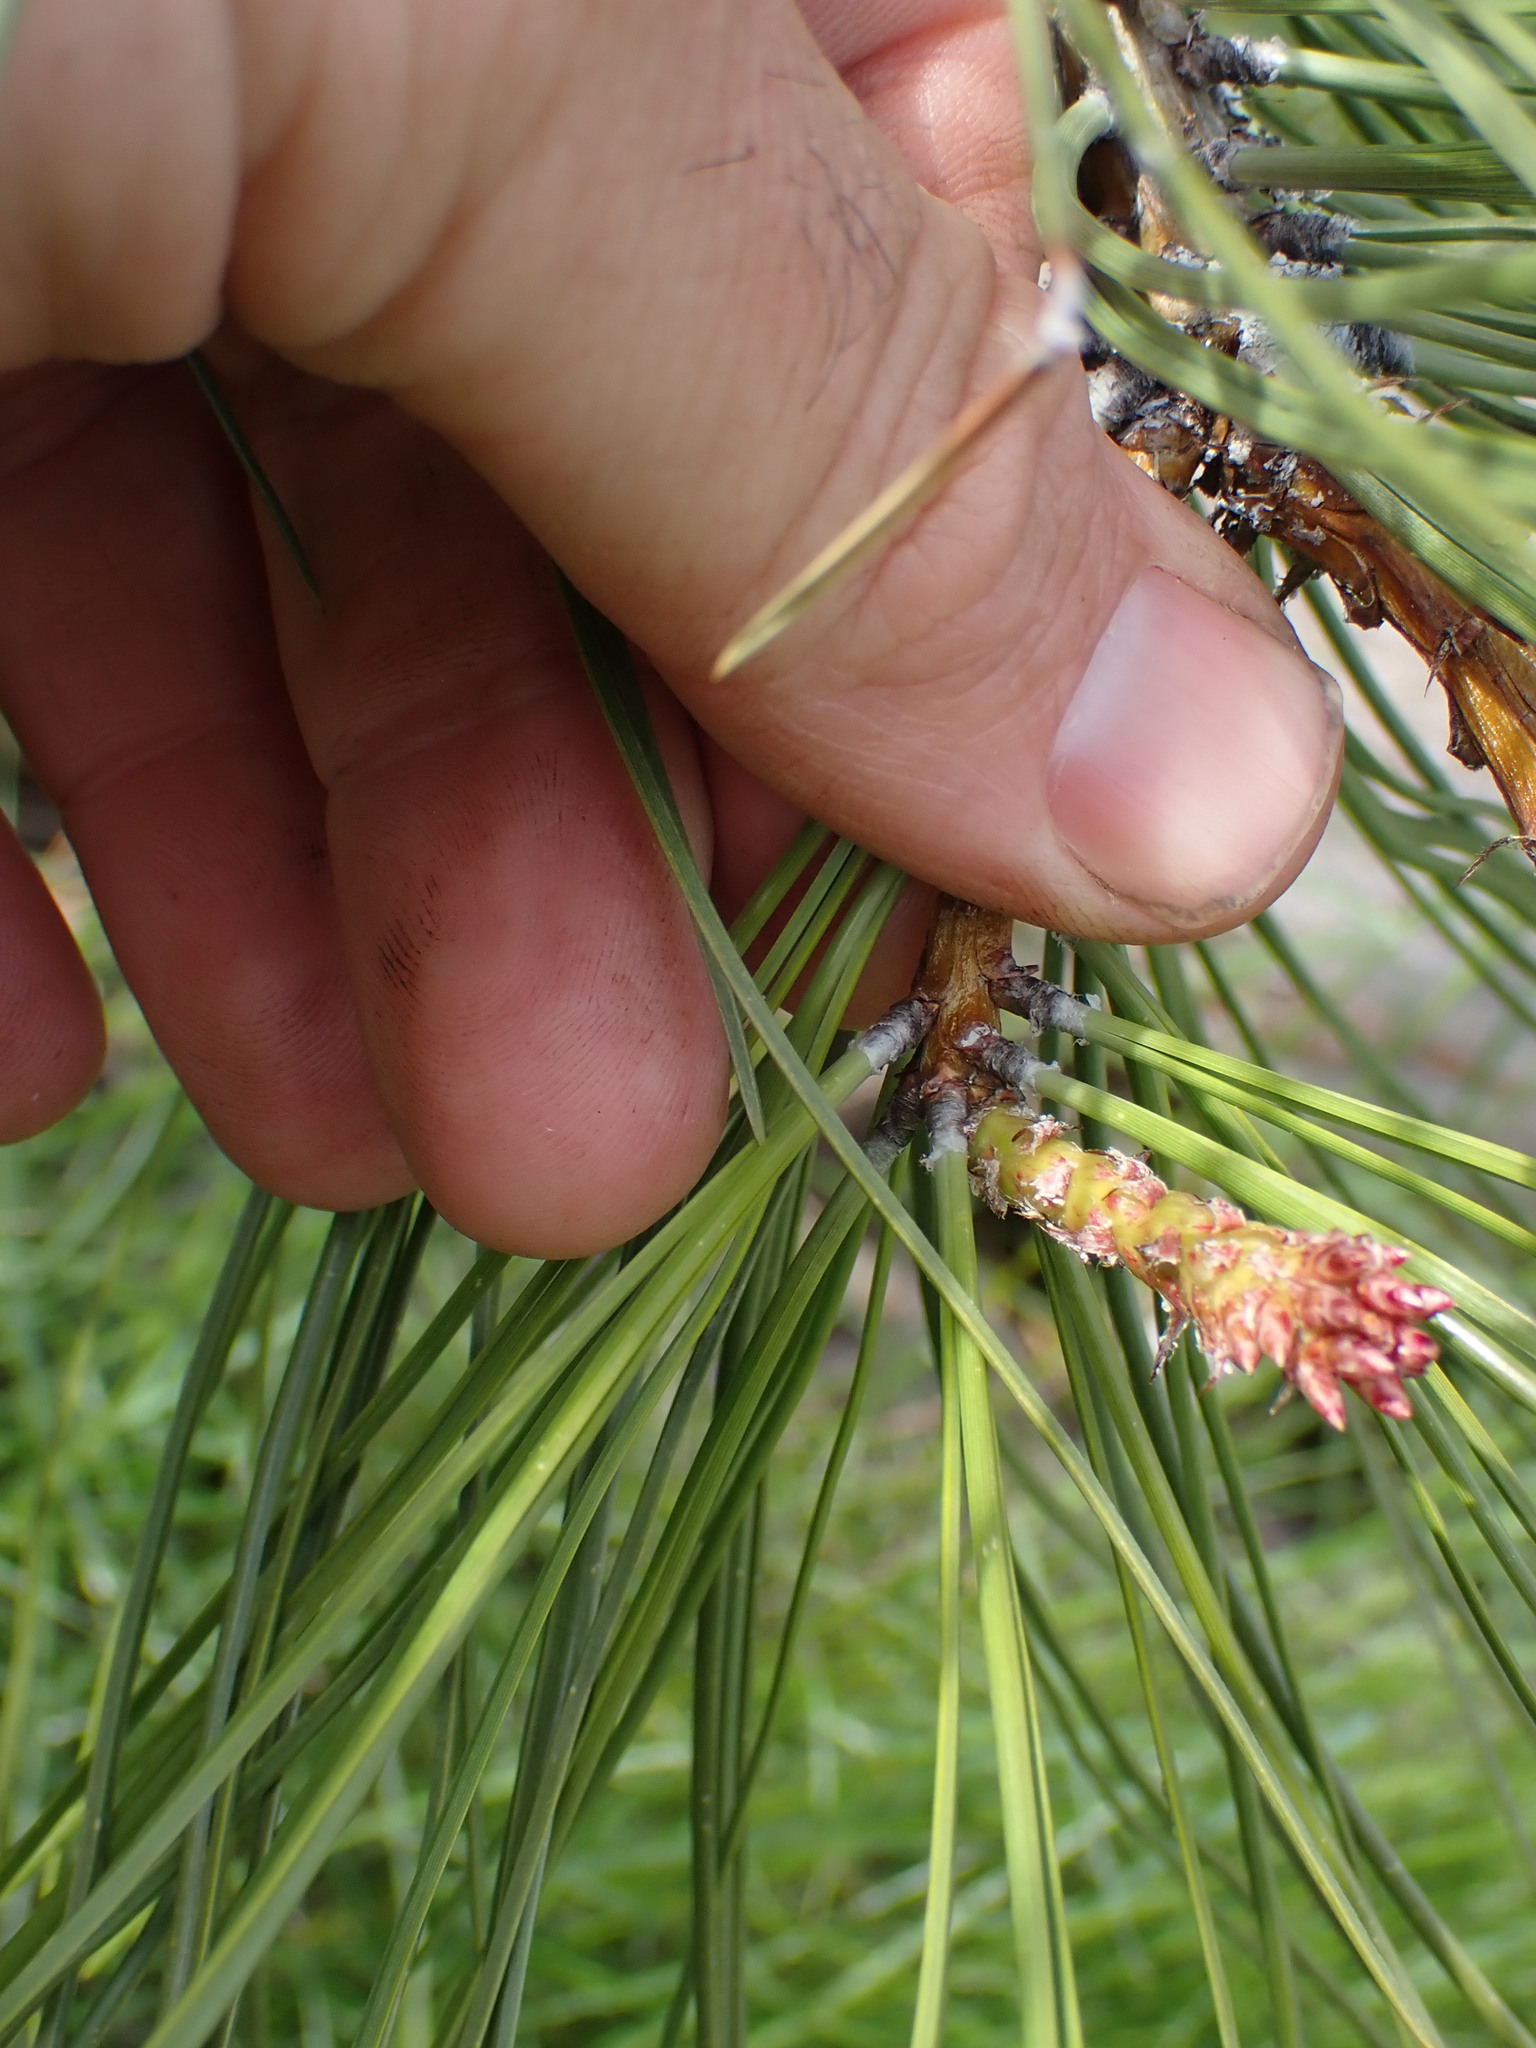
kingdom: Plantae
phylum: Tracheophyta
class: Pinopsida
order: Pinales
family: Pinaceae
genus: Pinus
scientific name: Pinus ponderosa
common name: Western yellow-pine
